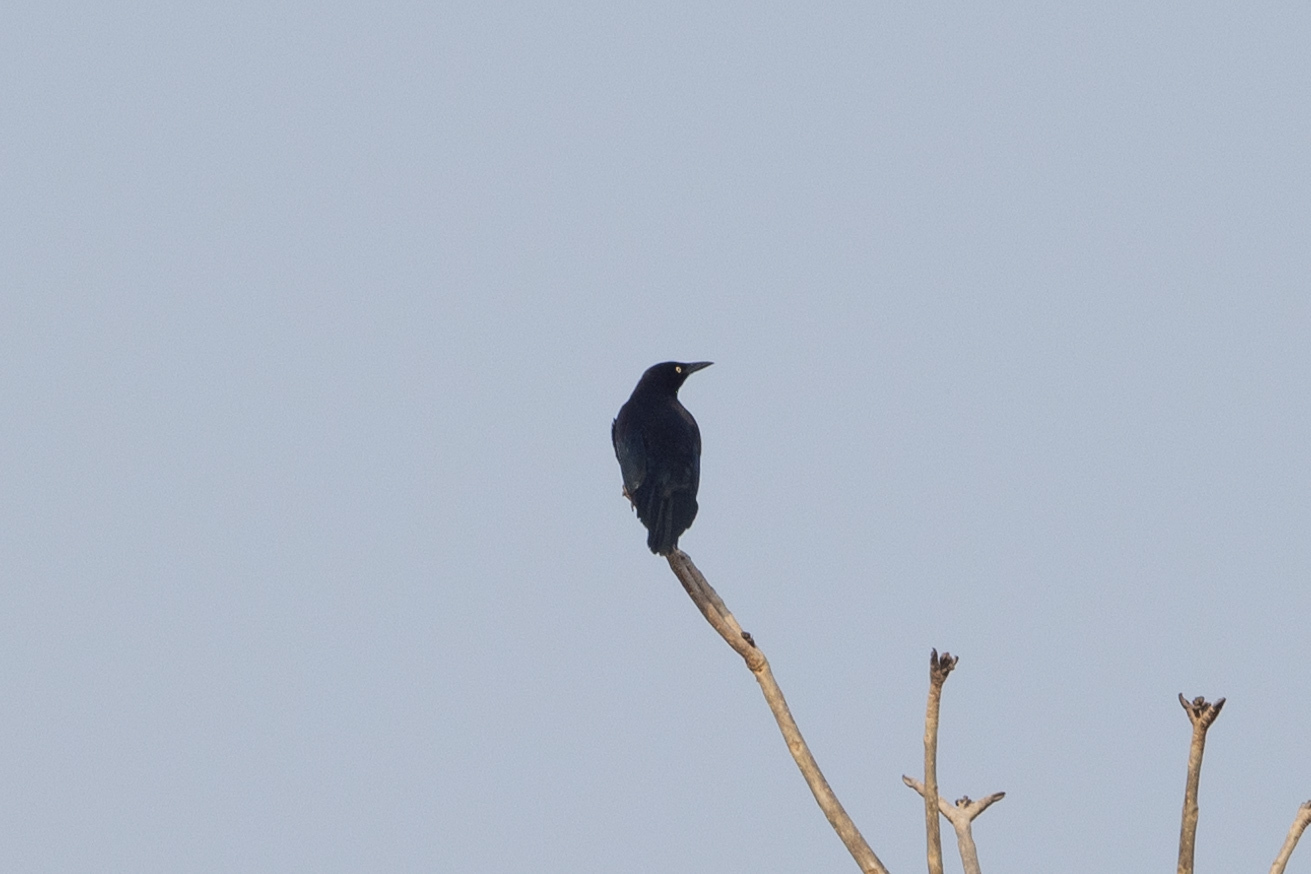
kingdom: Animalia
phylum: Chordata
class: Aves
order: Passeriformes
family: Icteridae
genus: Quiscalus
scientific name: Quiscalus mexicanus
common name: Great-tailed grackle
